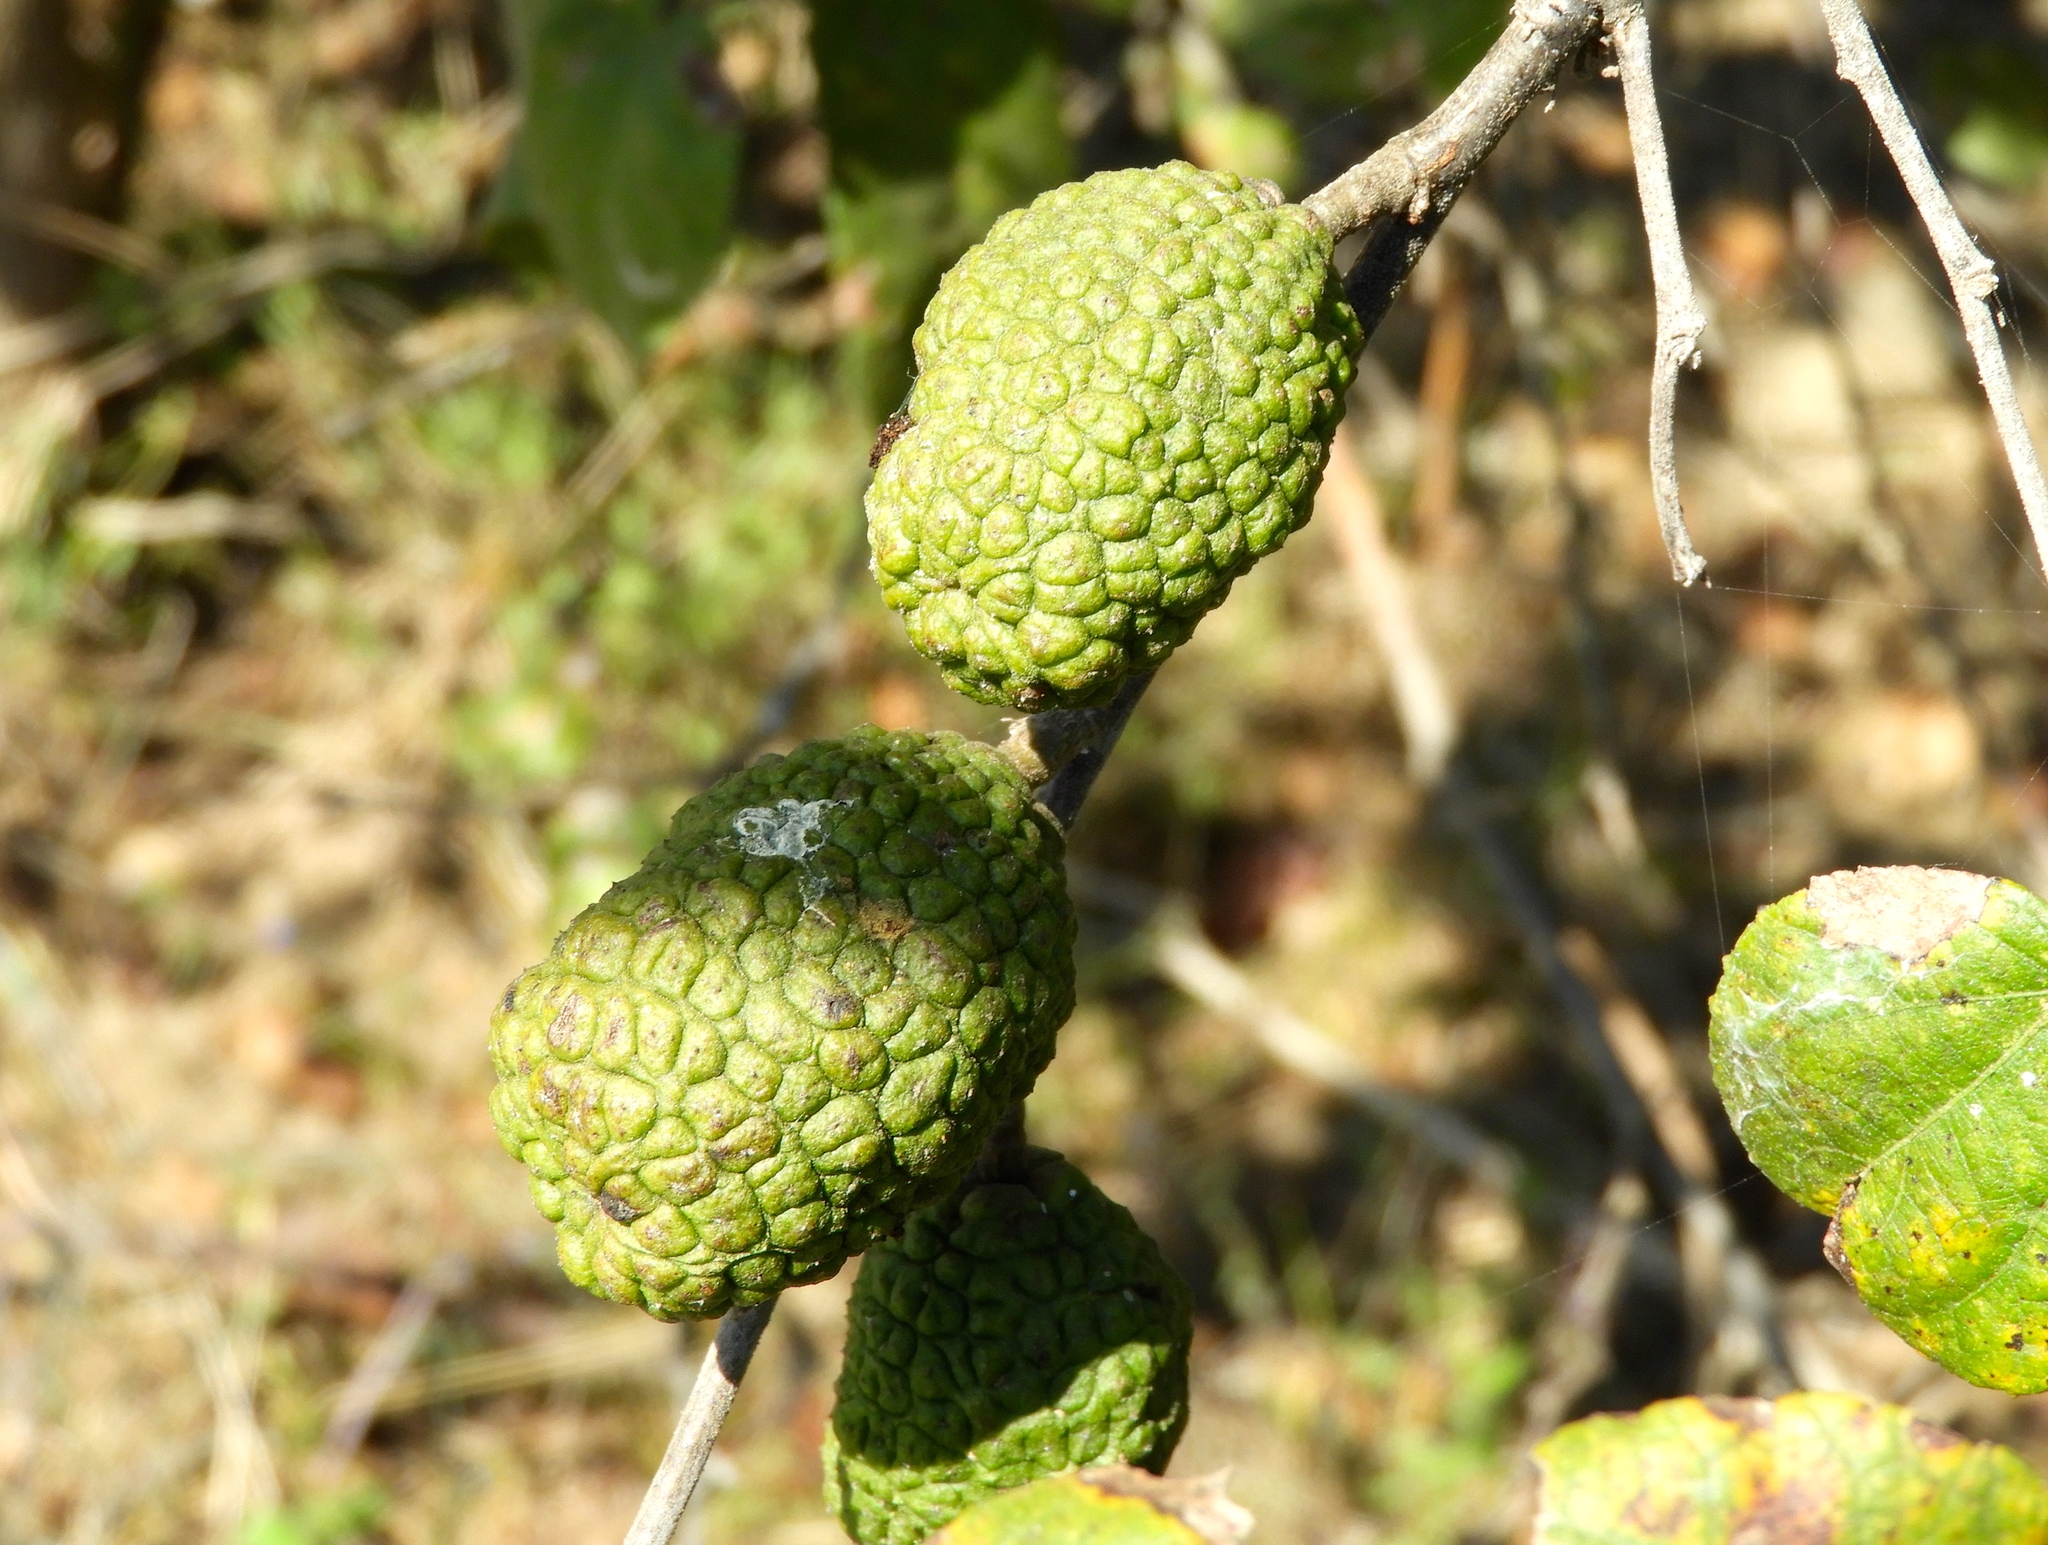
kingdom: Plantae
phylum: Tracheophyta
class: Magnoliopsida
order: Malvales
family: Malvaceae
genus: Guazuma
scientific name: Guazuma ulmifolia
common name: Bastard-cedar
